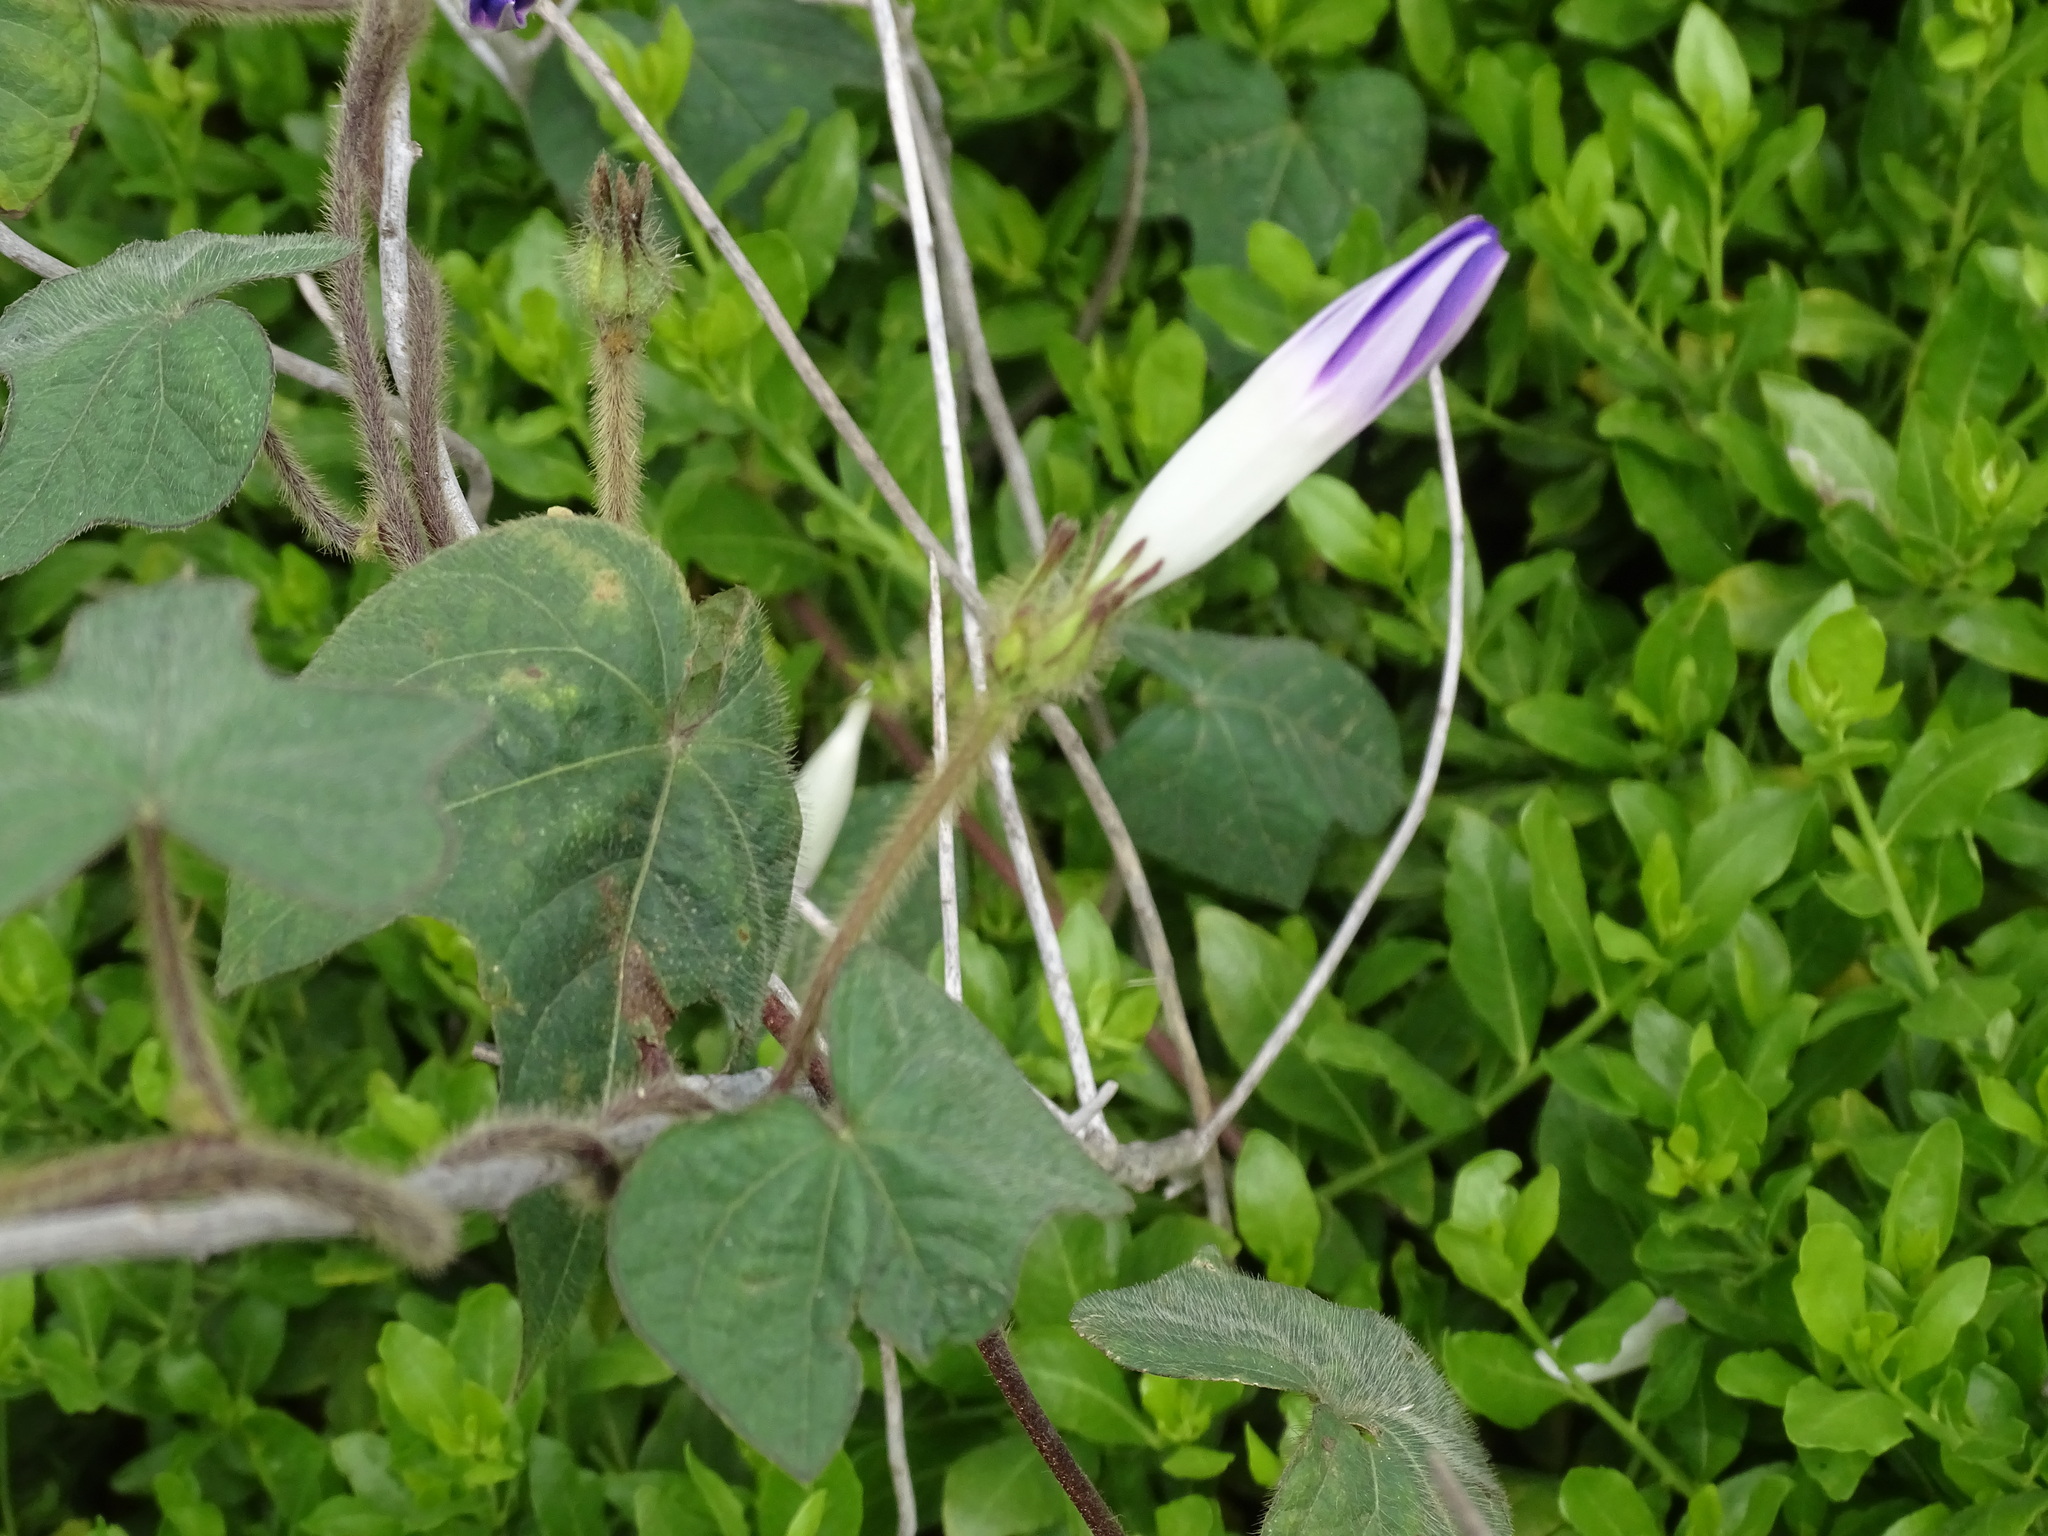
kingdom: Plantae
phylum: Tracheophyta
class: Magnoliopsida
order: Solanales
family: Convolvulaceae
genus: Ipomoea
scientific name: Ipomoea nil
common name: Japanese morning-glory
